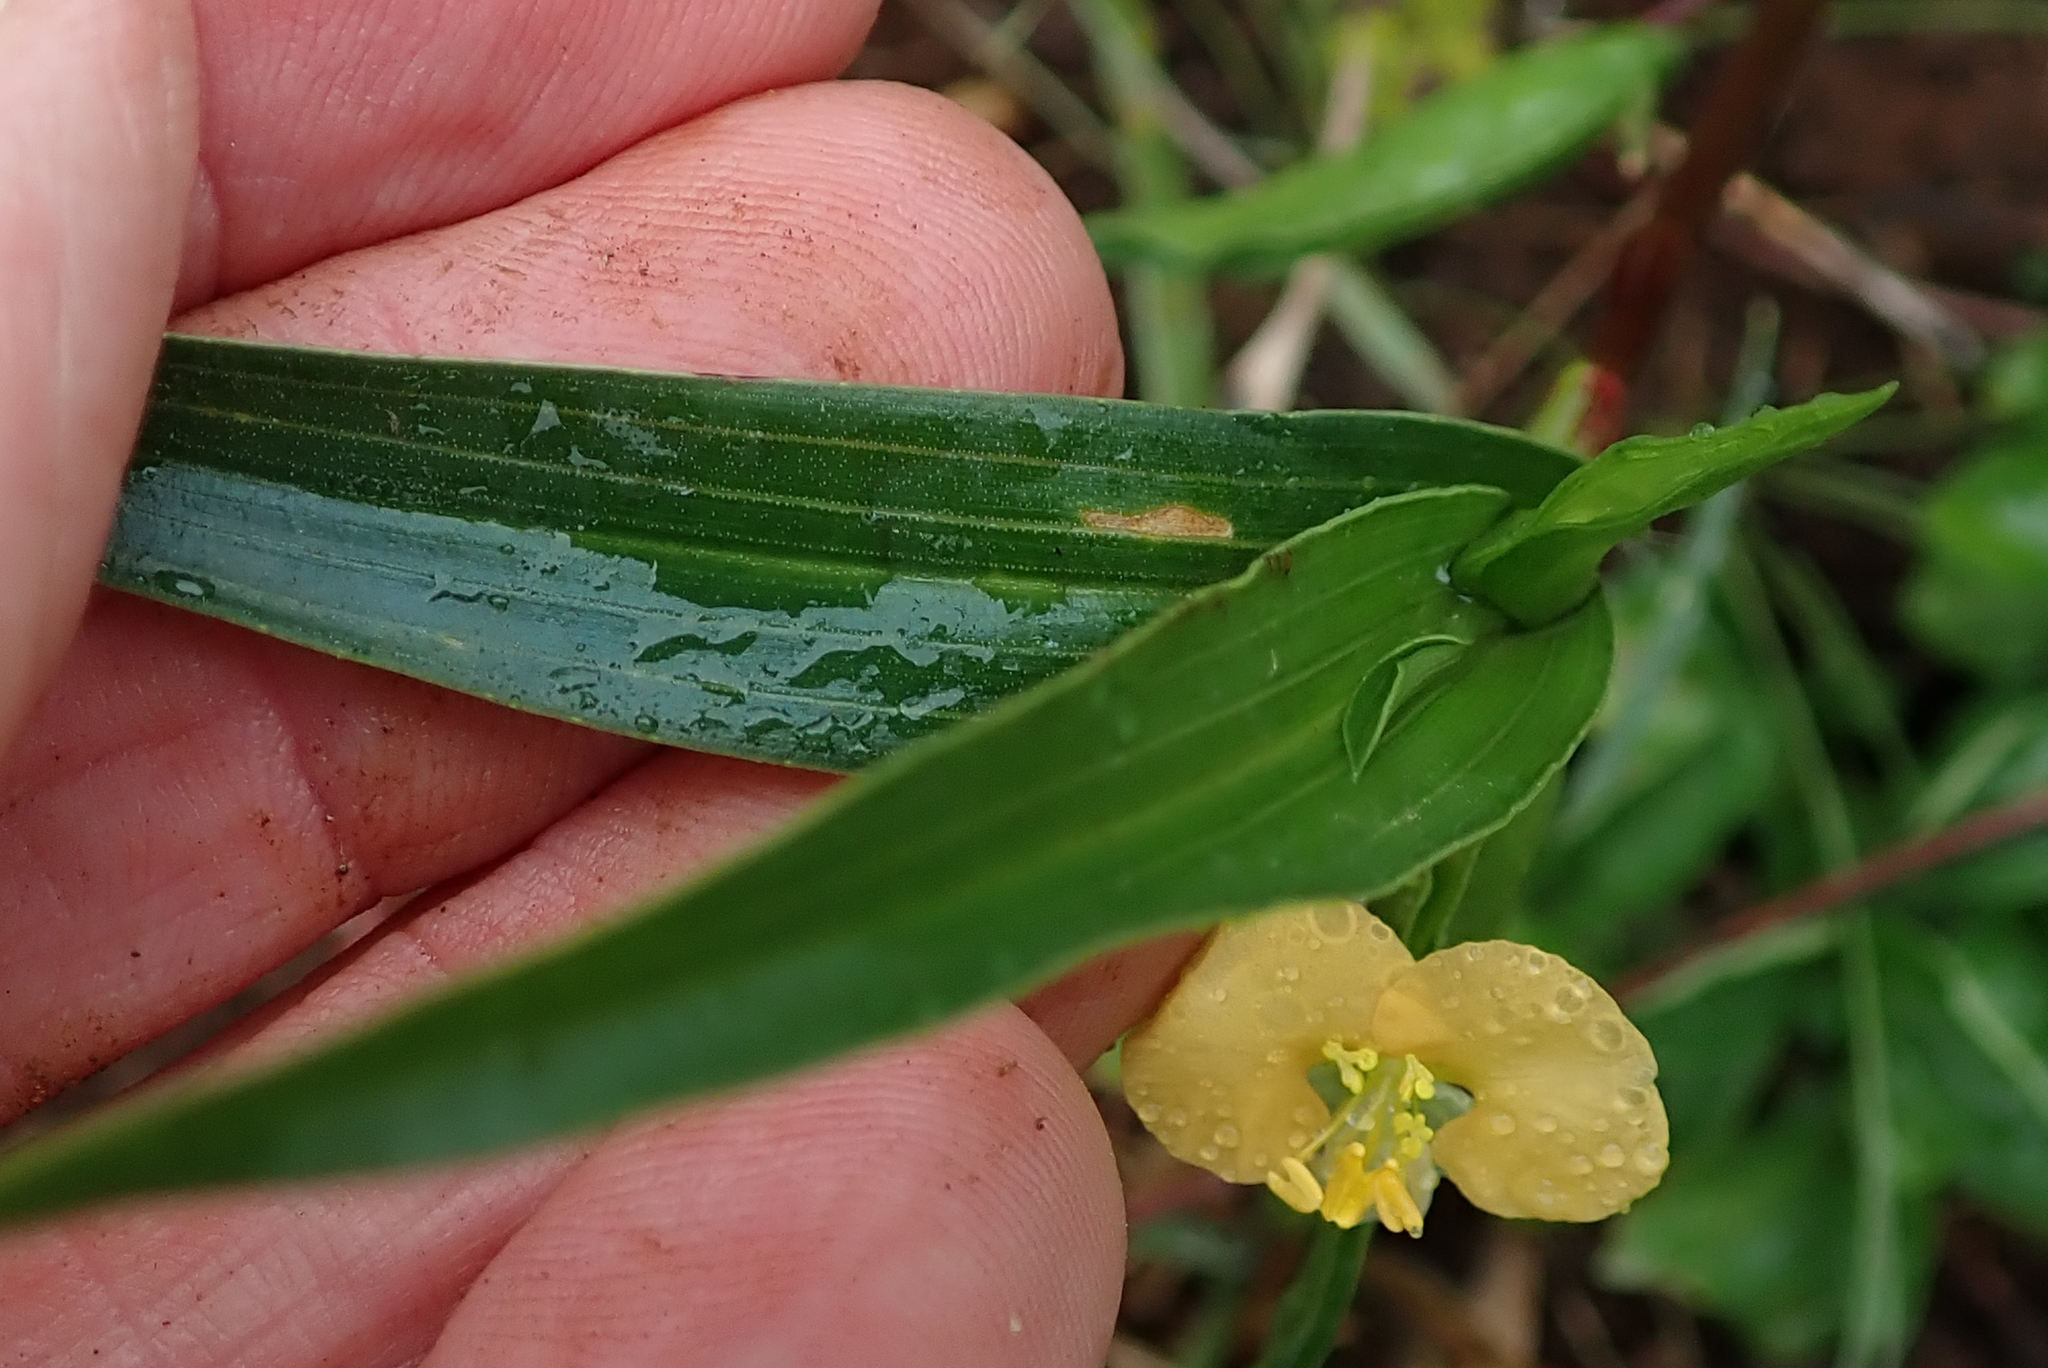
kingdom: Plantae
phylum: Tracheophyta
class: Liliopsida
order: Commelinales
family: Commelinaceae
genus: Commelina
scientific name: Commelina africana
